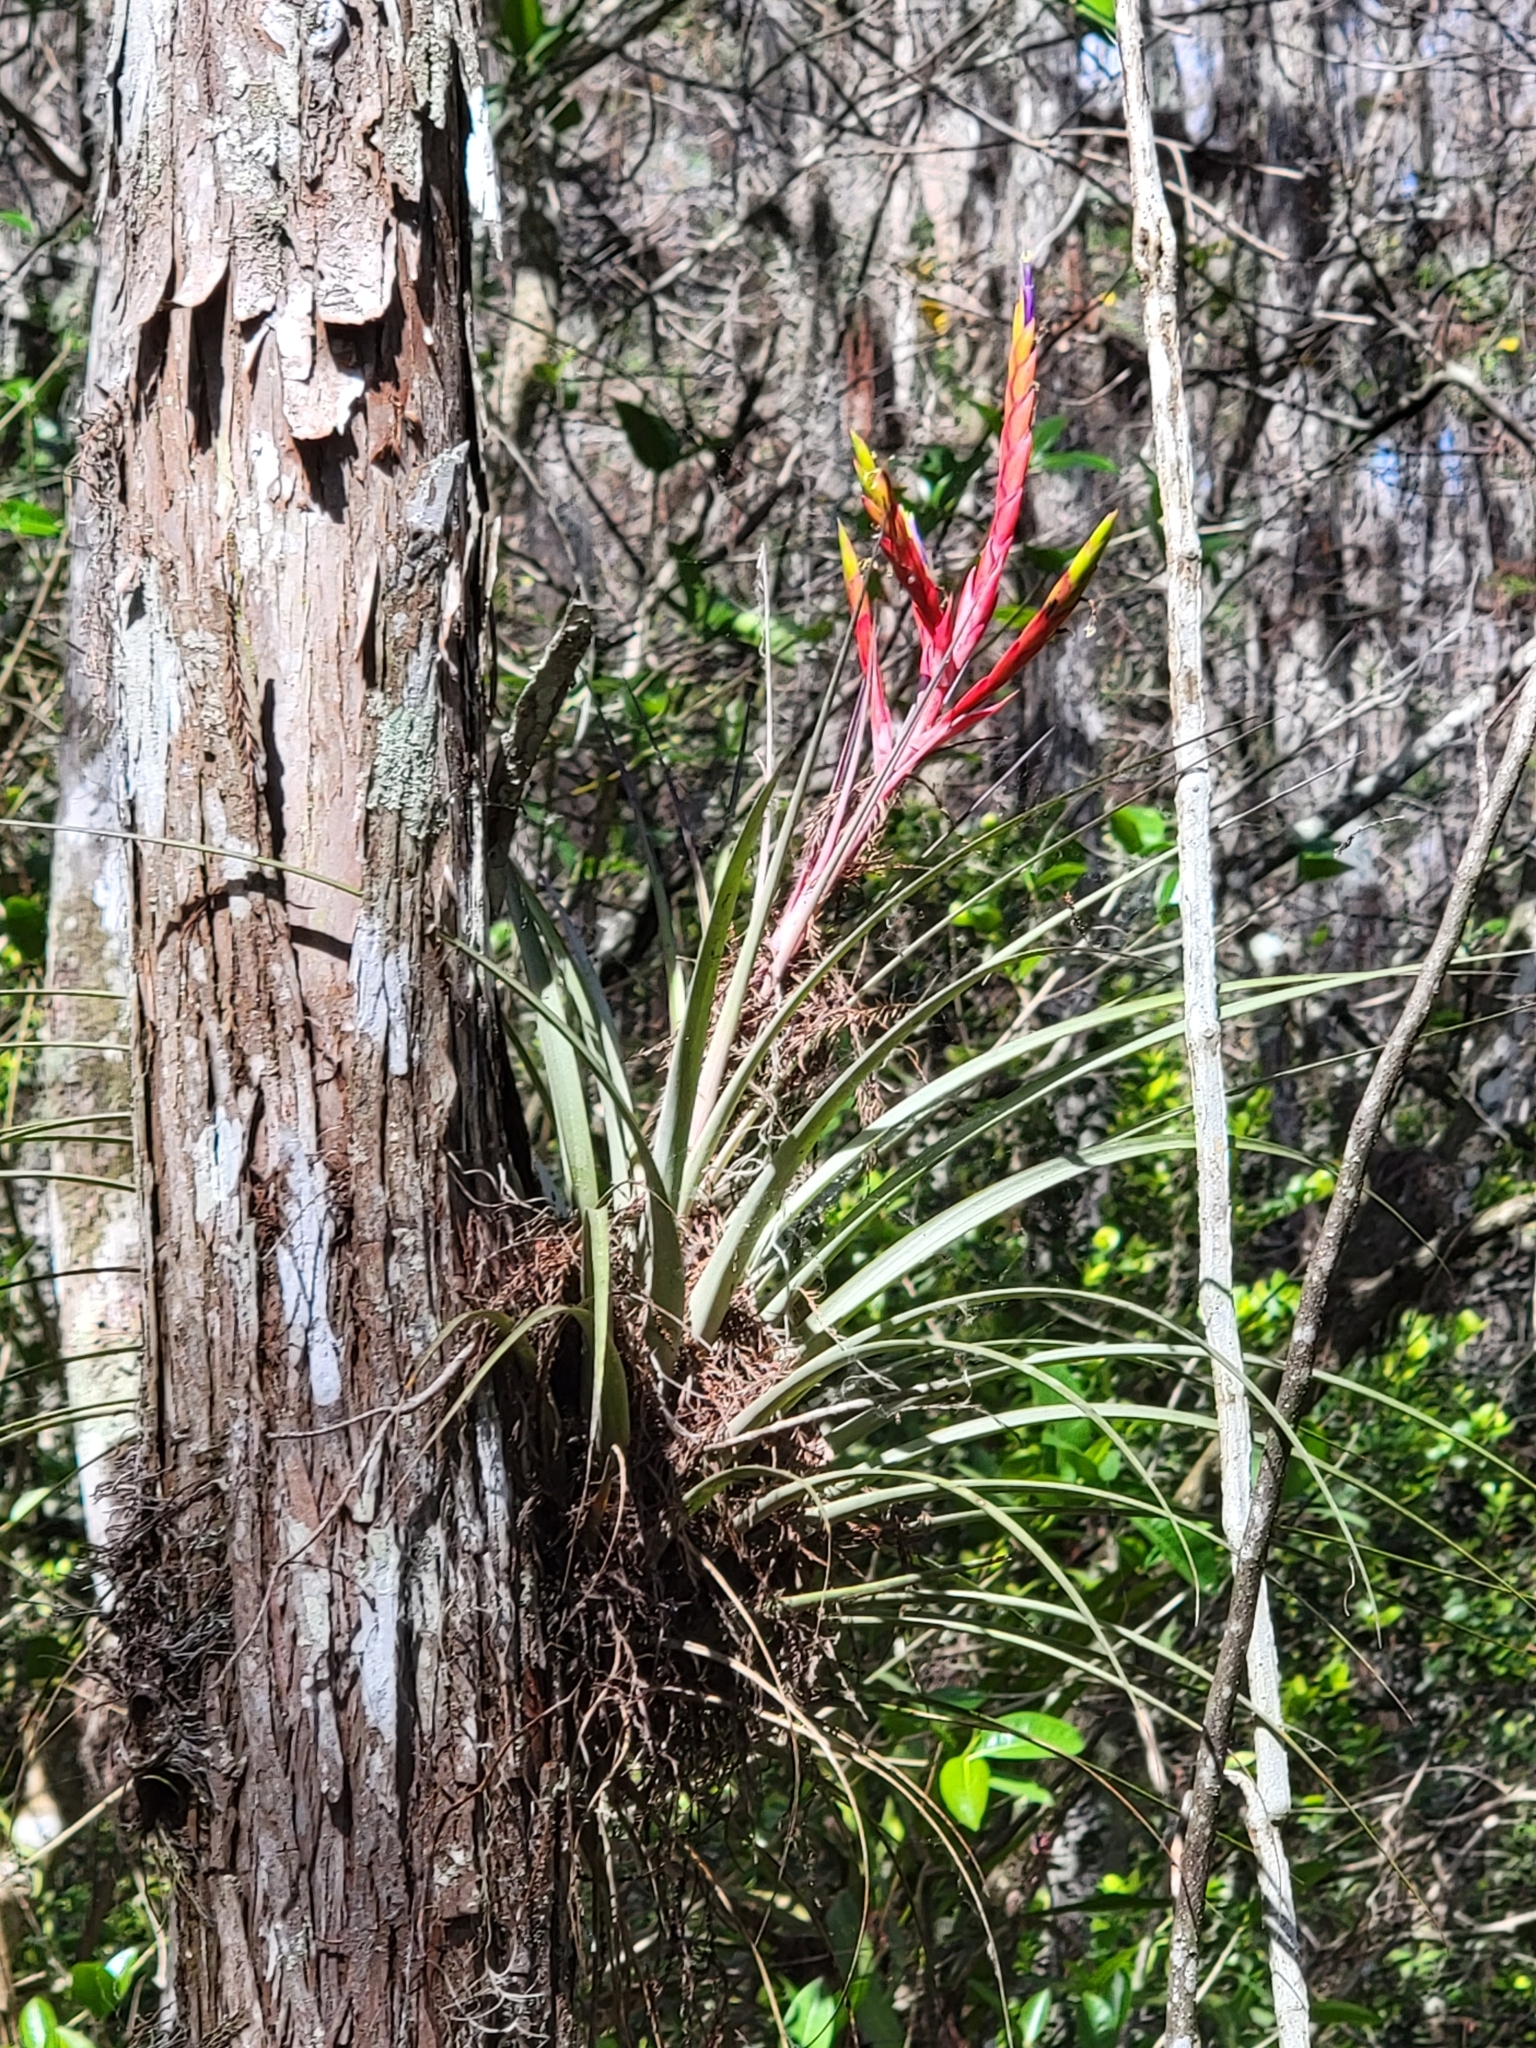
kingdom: Plantae
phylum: Tracheophyta
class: Liliopsida
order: Poales
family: Bromeliaceae
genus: Tillandsia
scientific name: Tillandsia fasciculata
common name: Giant airplant
